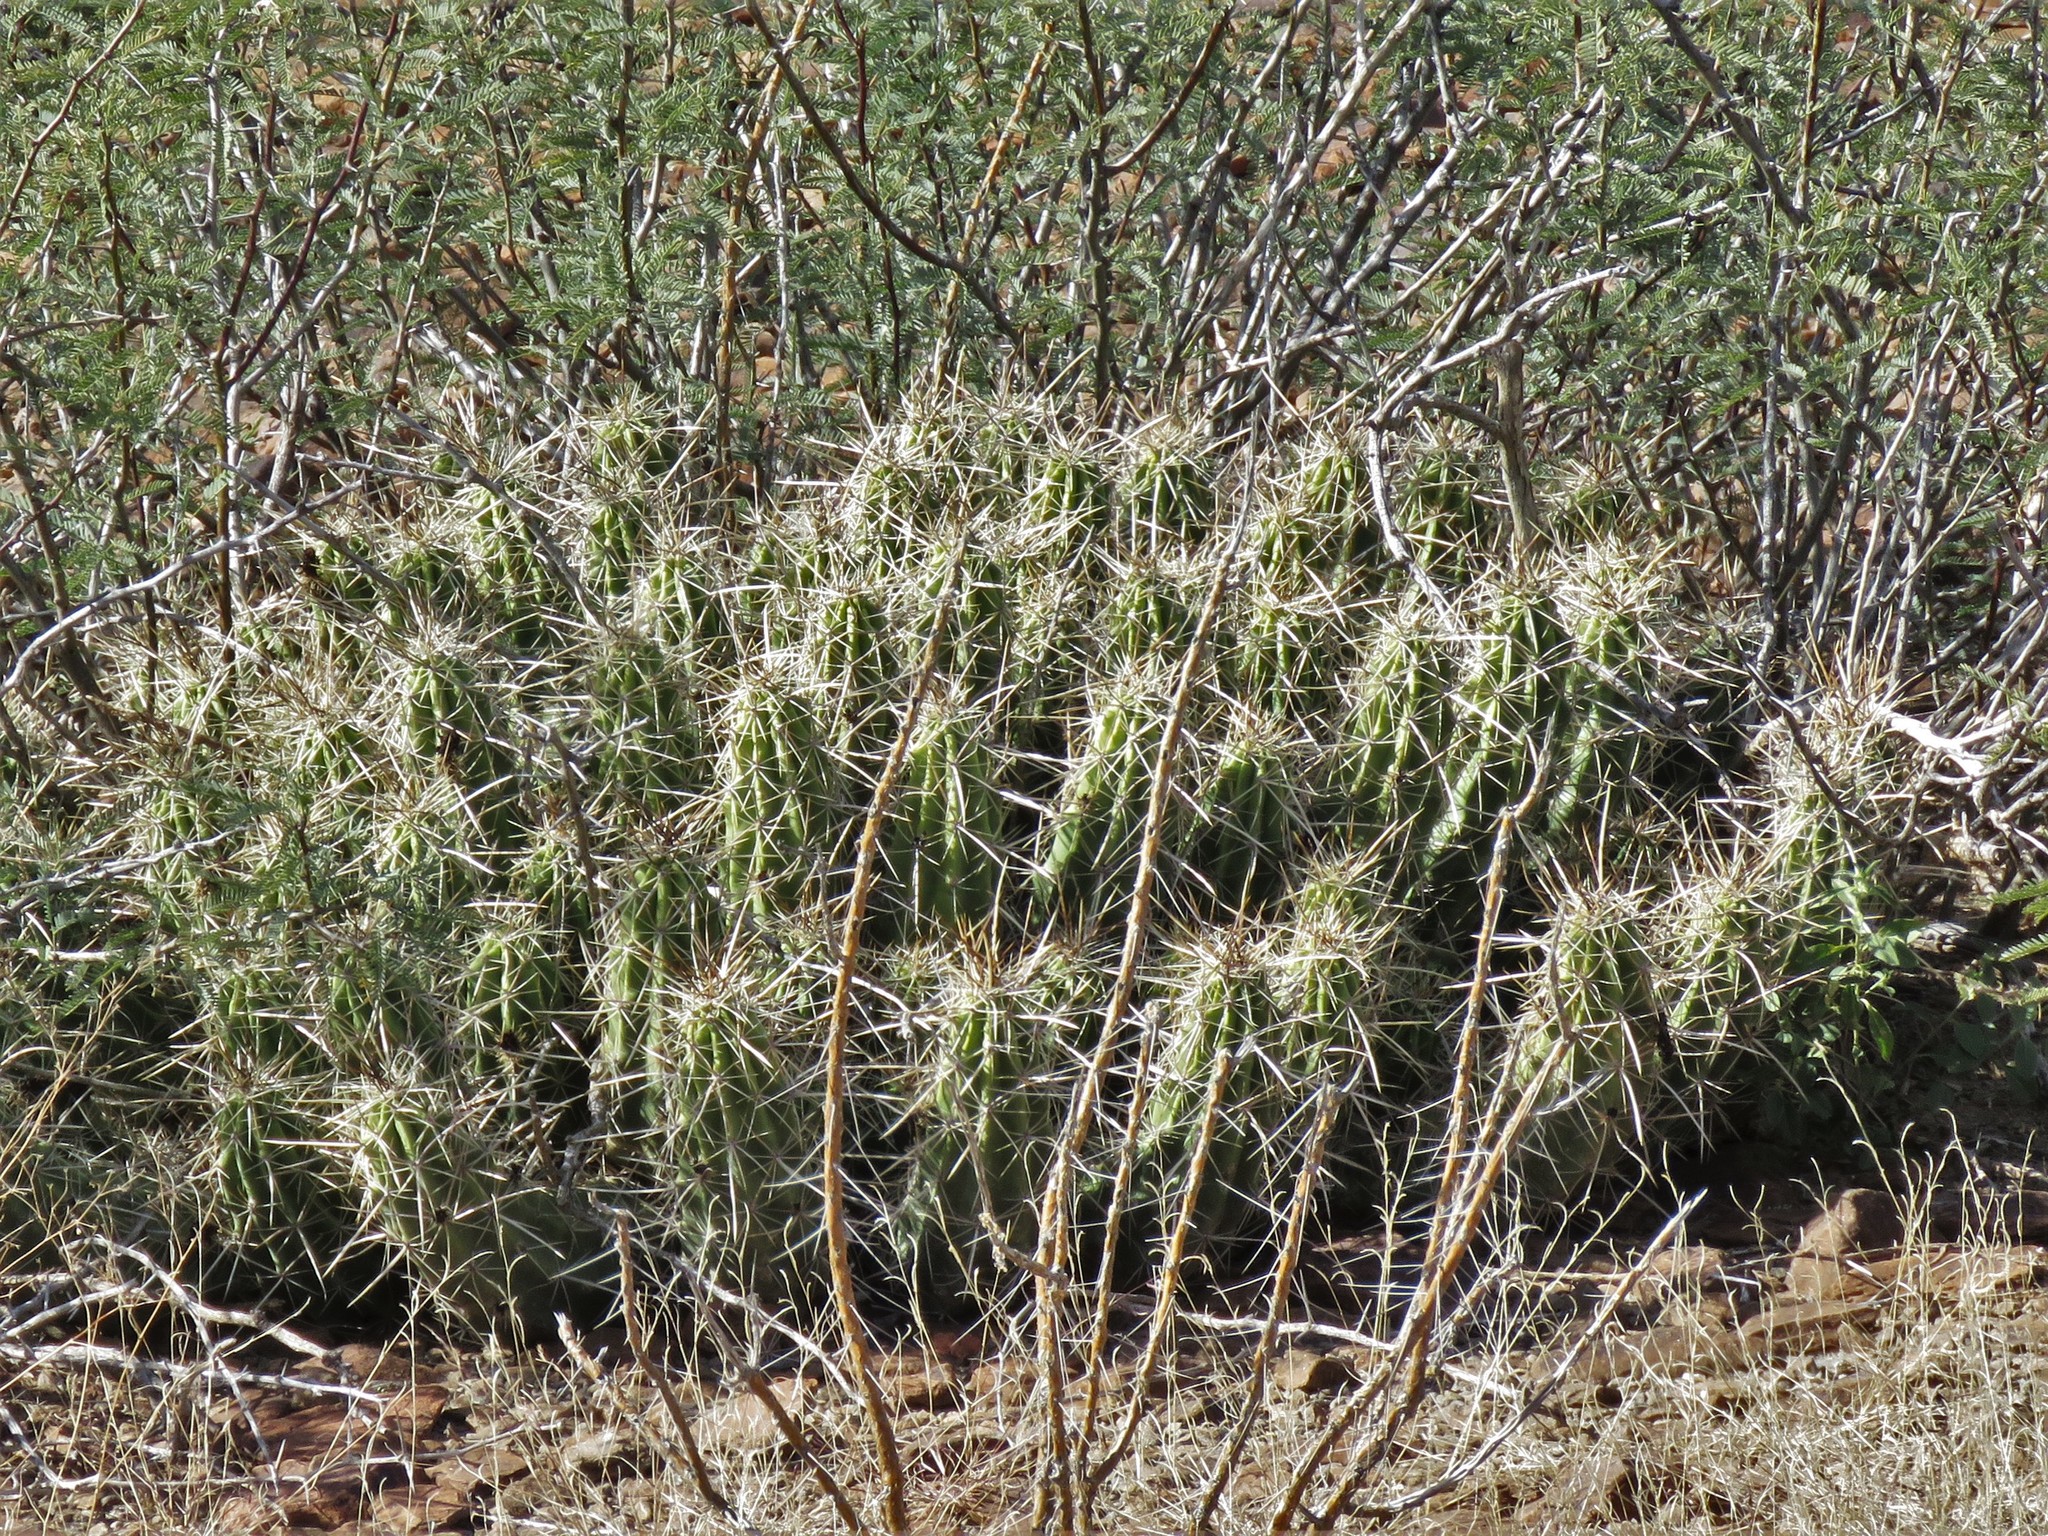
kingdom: Plantae
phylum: Tracheophyta
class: Magnoliopsida
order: Caryophyllales
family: Cactaceae
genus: Echinocereus
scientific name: Echinocereus enneacanthus
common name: Pitaya
